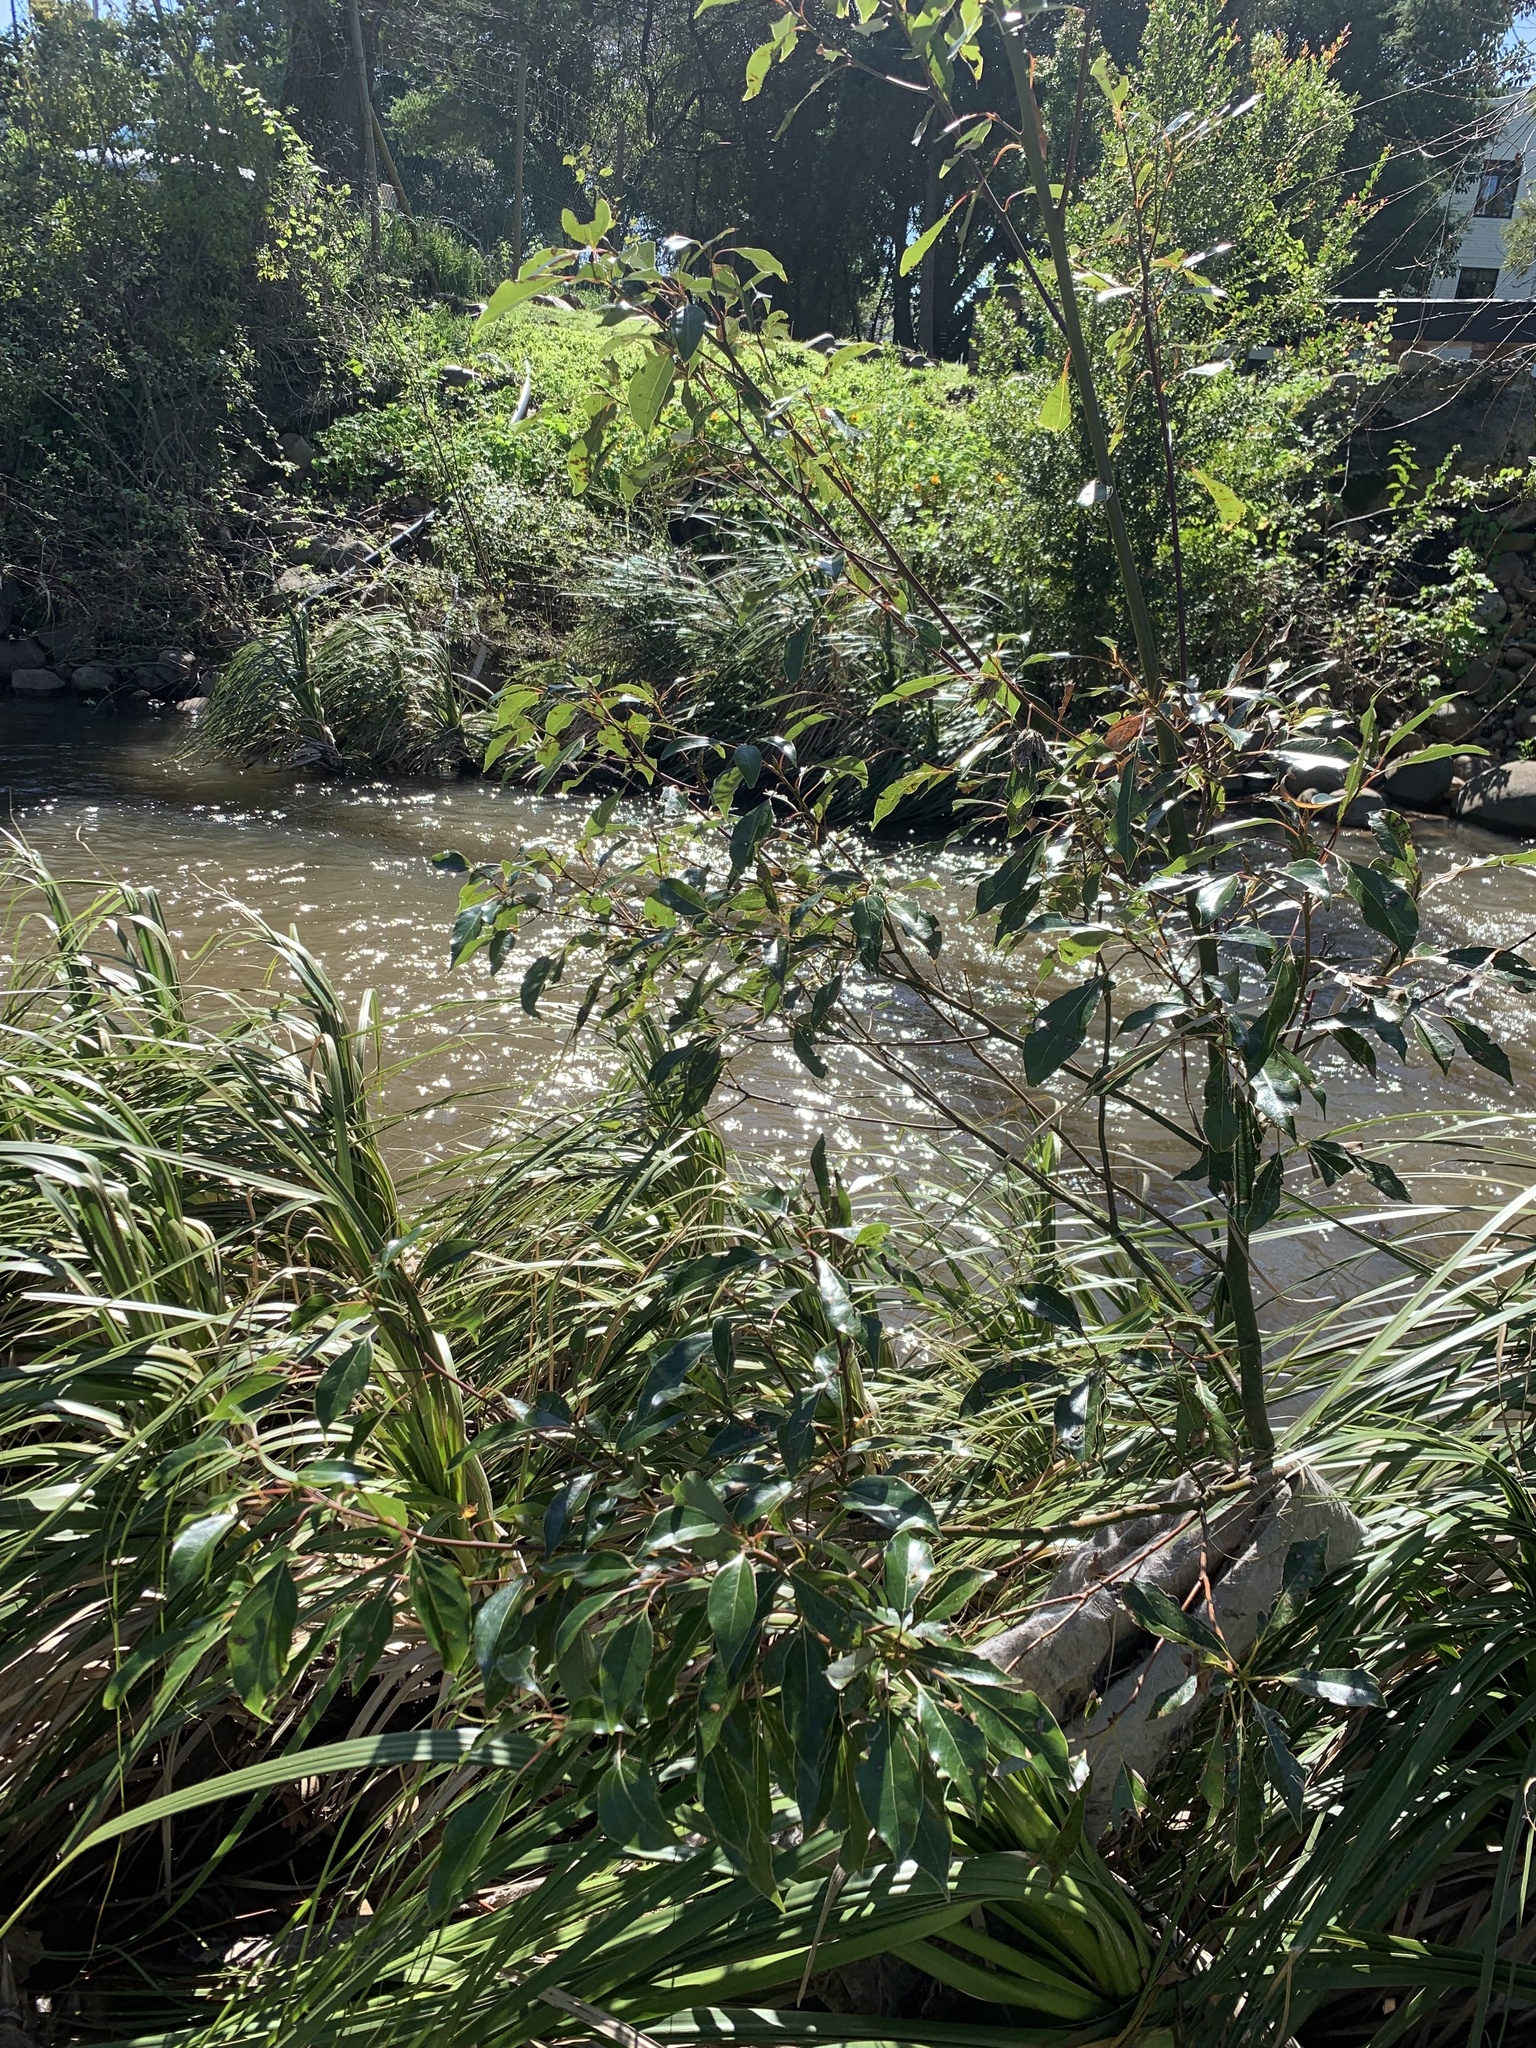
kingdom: Plantae
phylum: Tracheophyta
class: Magnoliopsida
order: Laurales
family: Lauraceae
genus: Cinnamomum
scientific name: Cinnamomum camphora
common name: Camphortree
